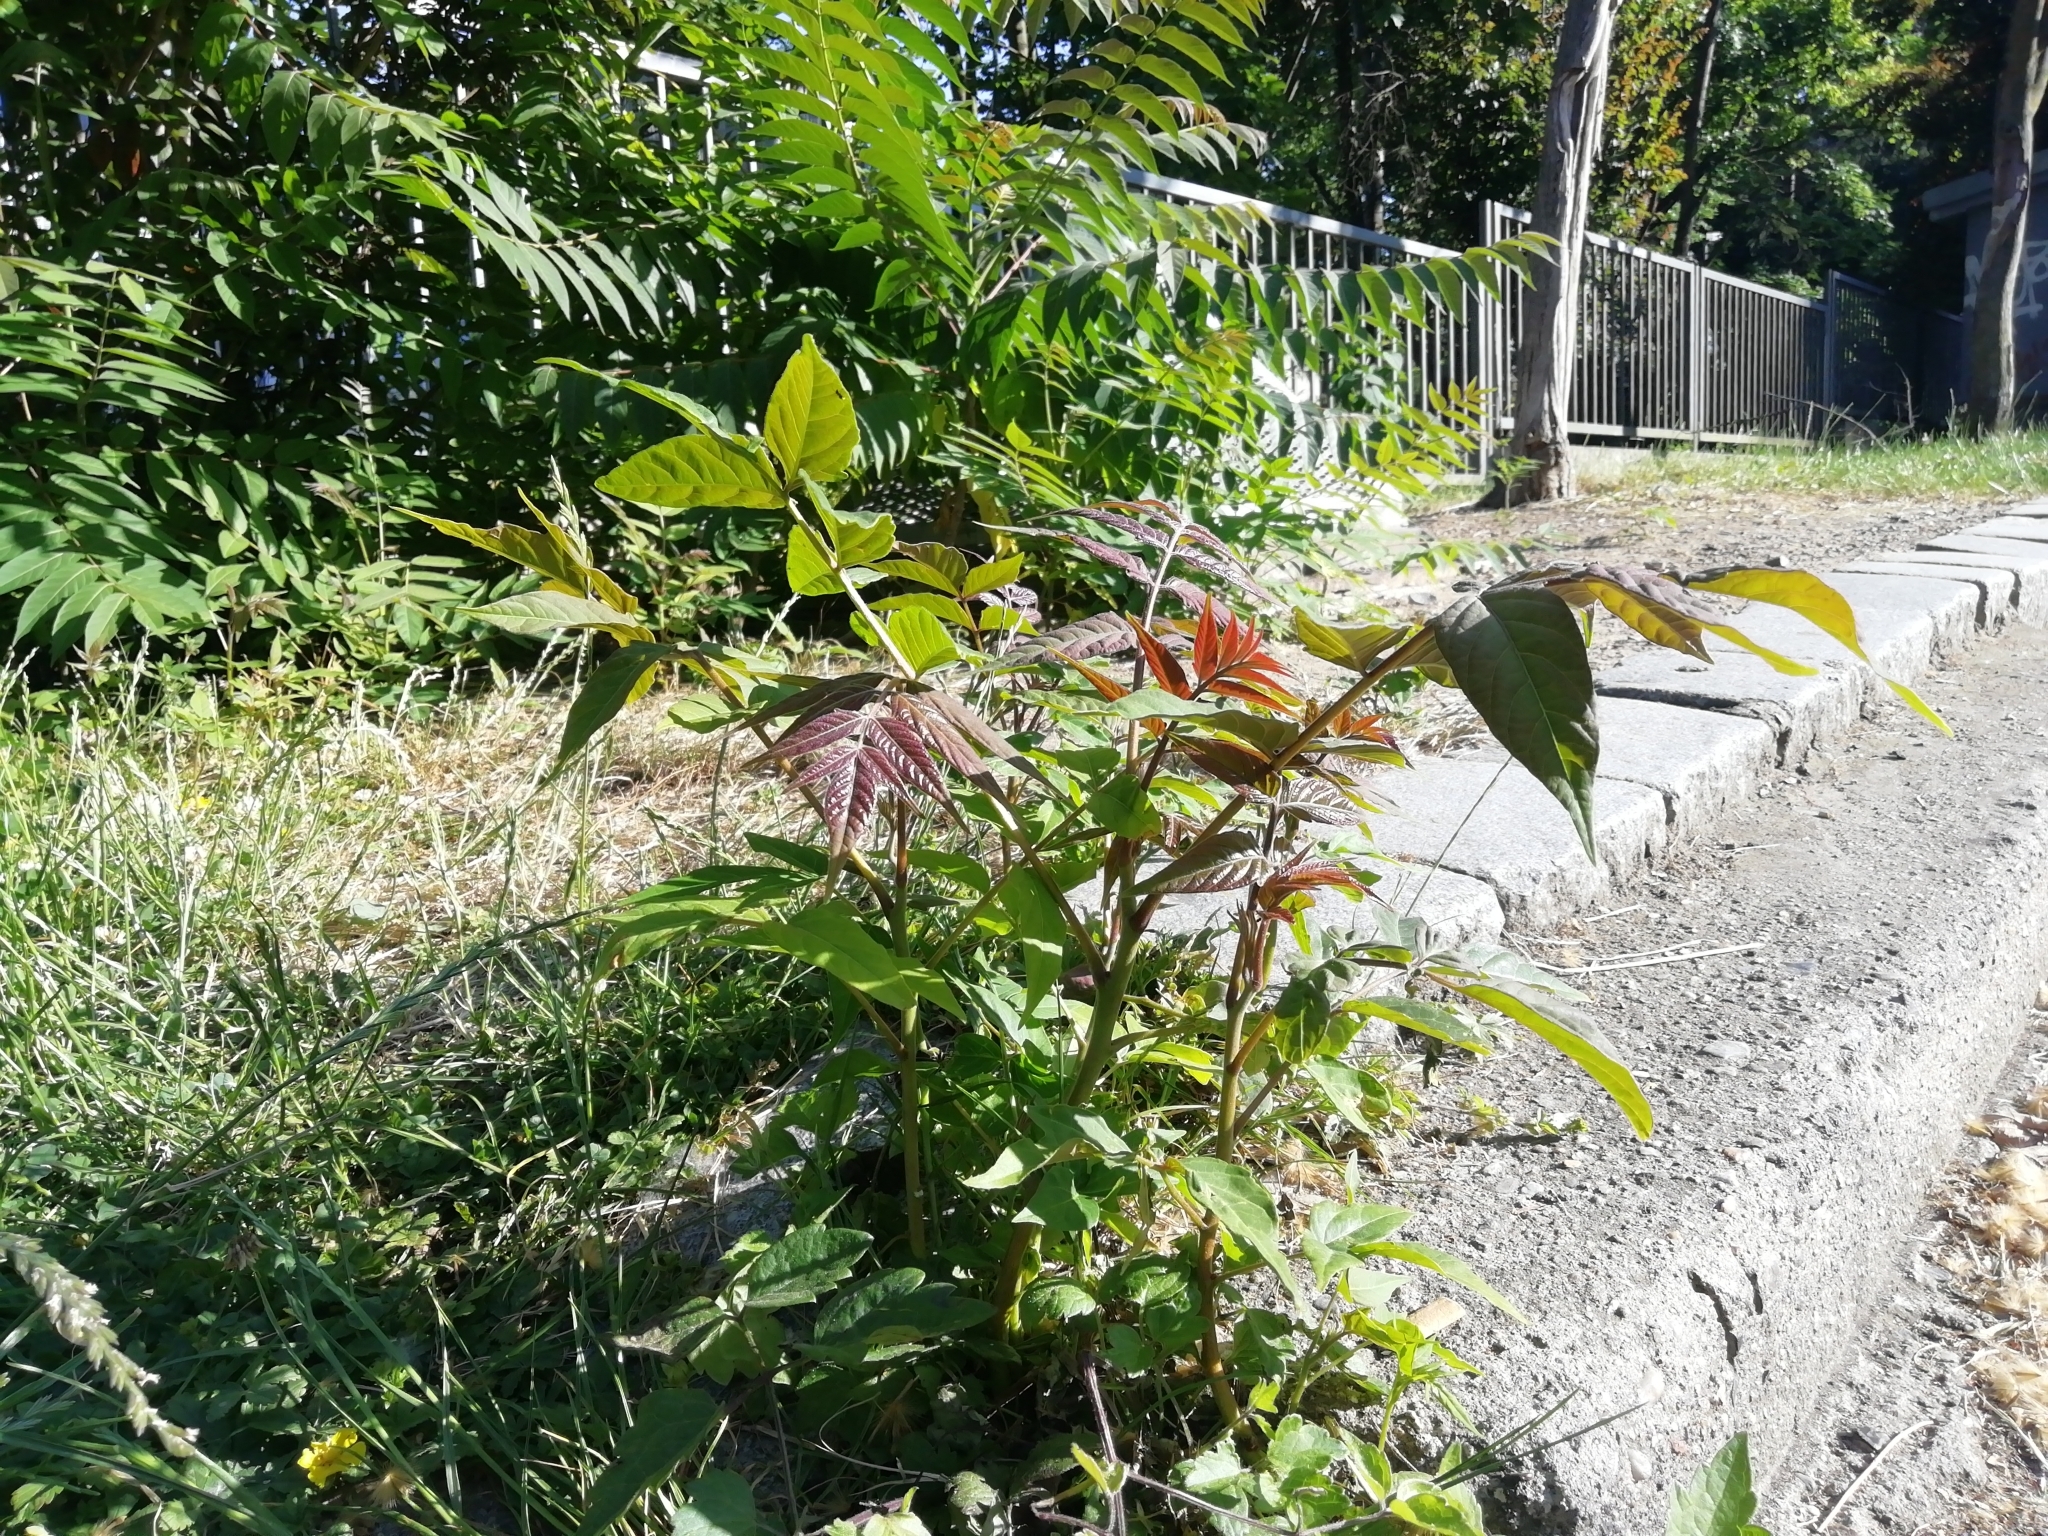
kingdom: Plantae
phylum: Tracheophyta
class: Magnoliopsida
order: Sapindales
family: Simaroubaceae
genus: Ailanthus
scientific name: Ailanthus altissima
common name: Tree-of-heaven
